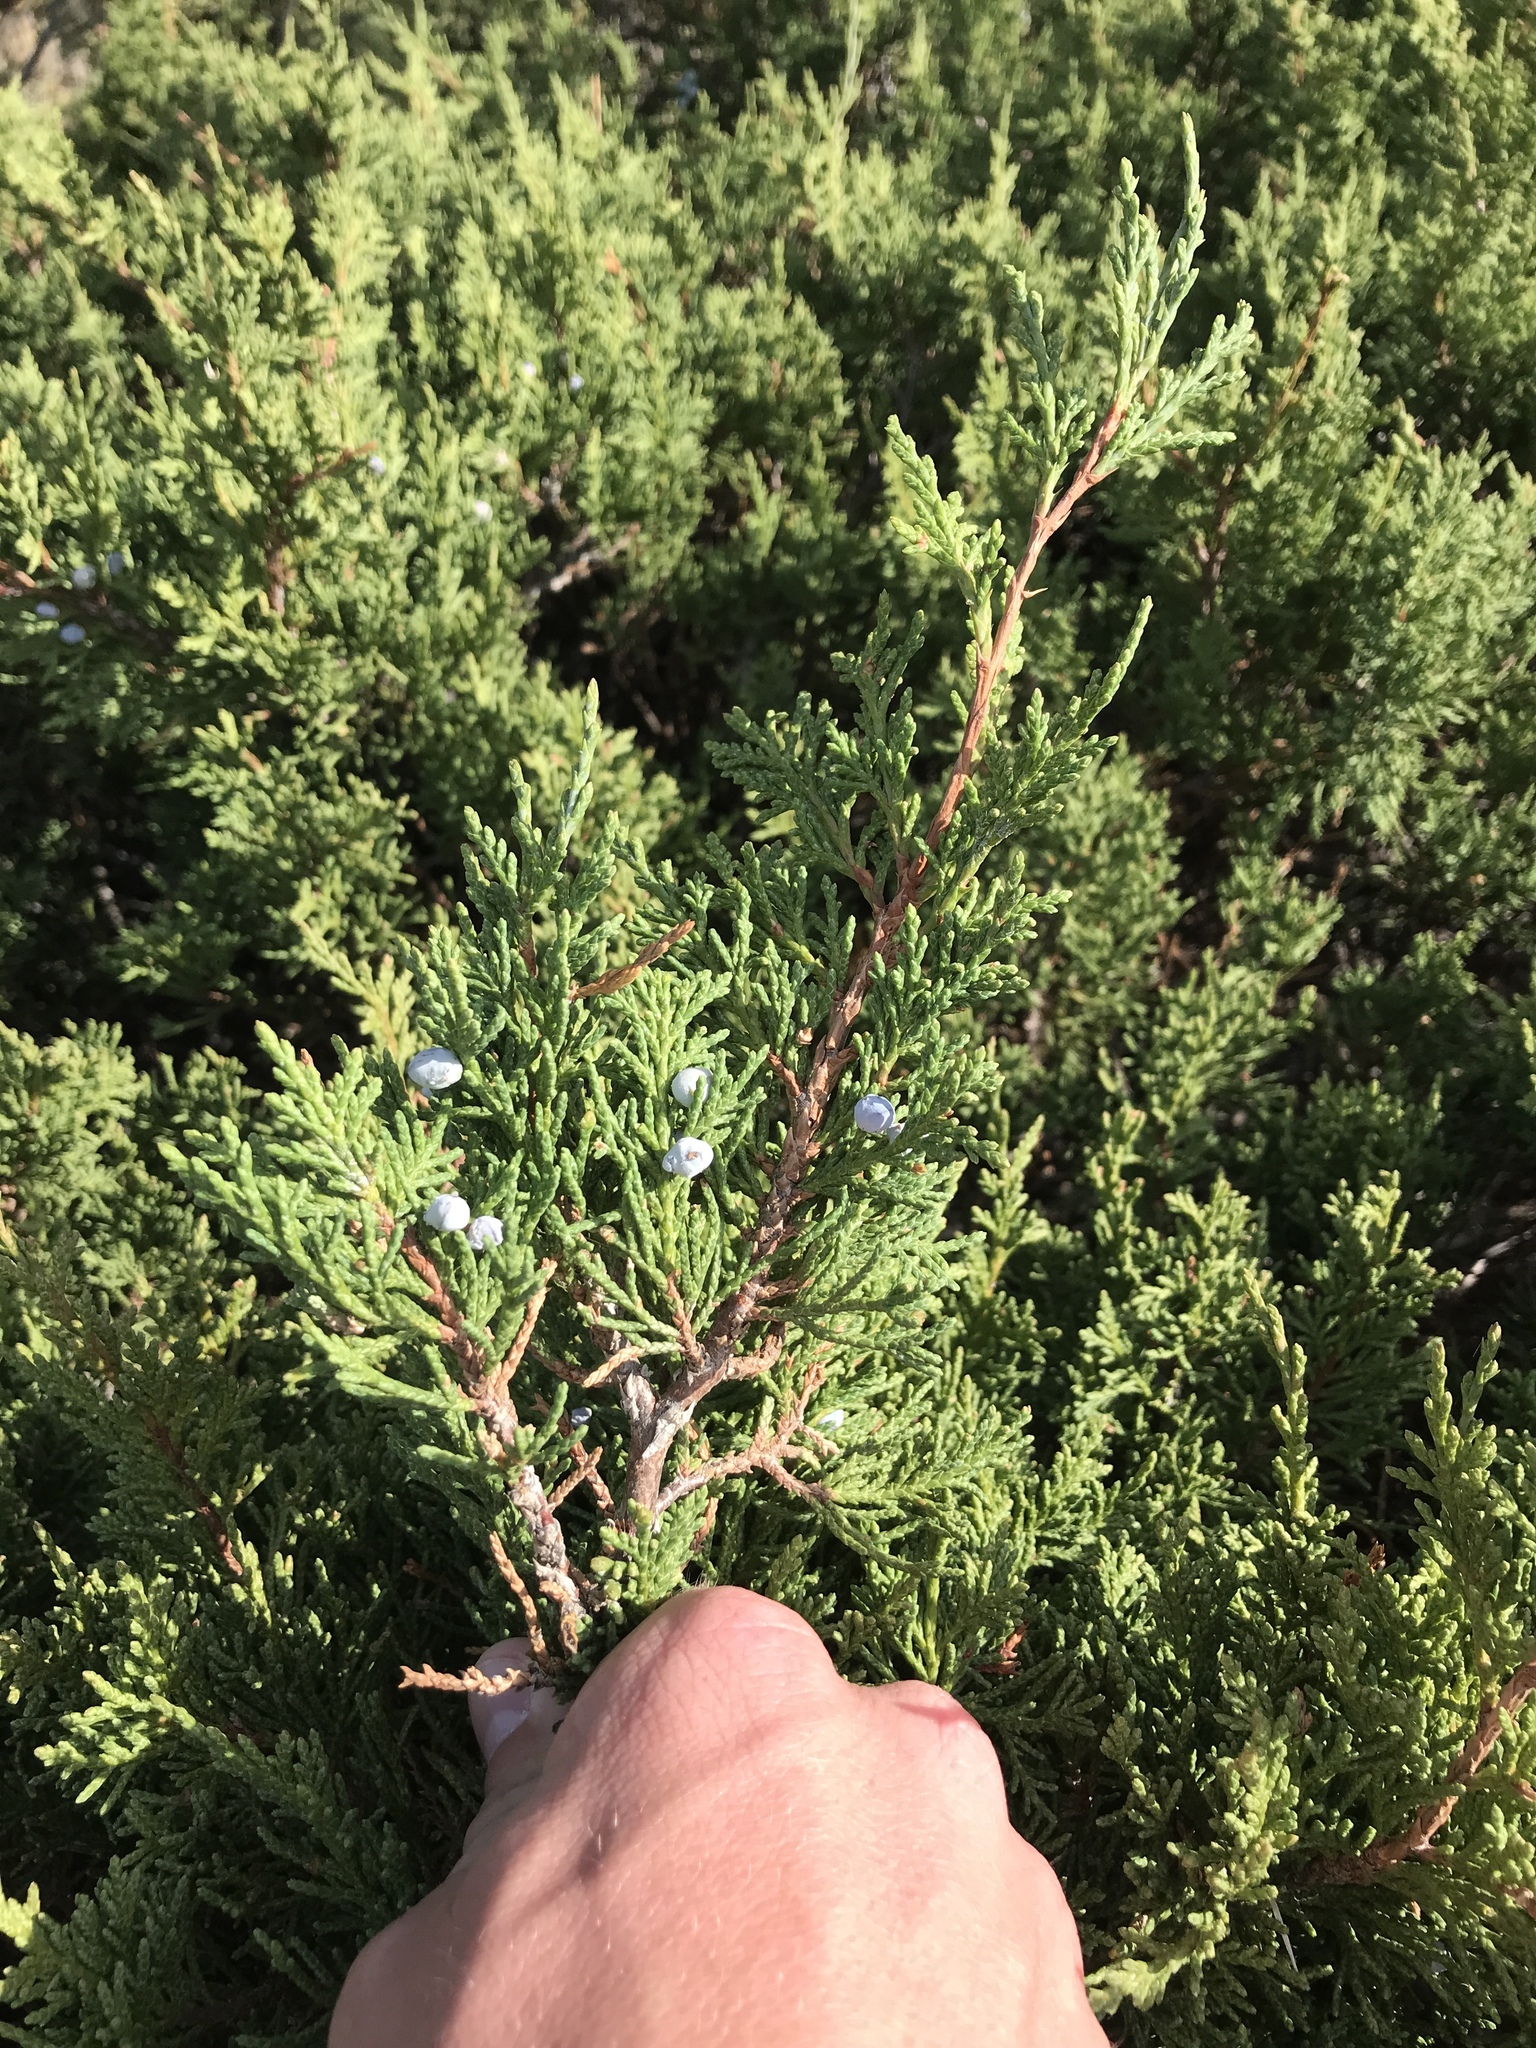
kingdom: Plantae
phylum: Tracheophyta
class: Pinopsida
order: Pinales
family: Cupressaceae
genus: Juniperus
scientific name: Juniperus scopulorum
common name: Rocky mountain juniper
